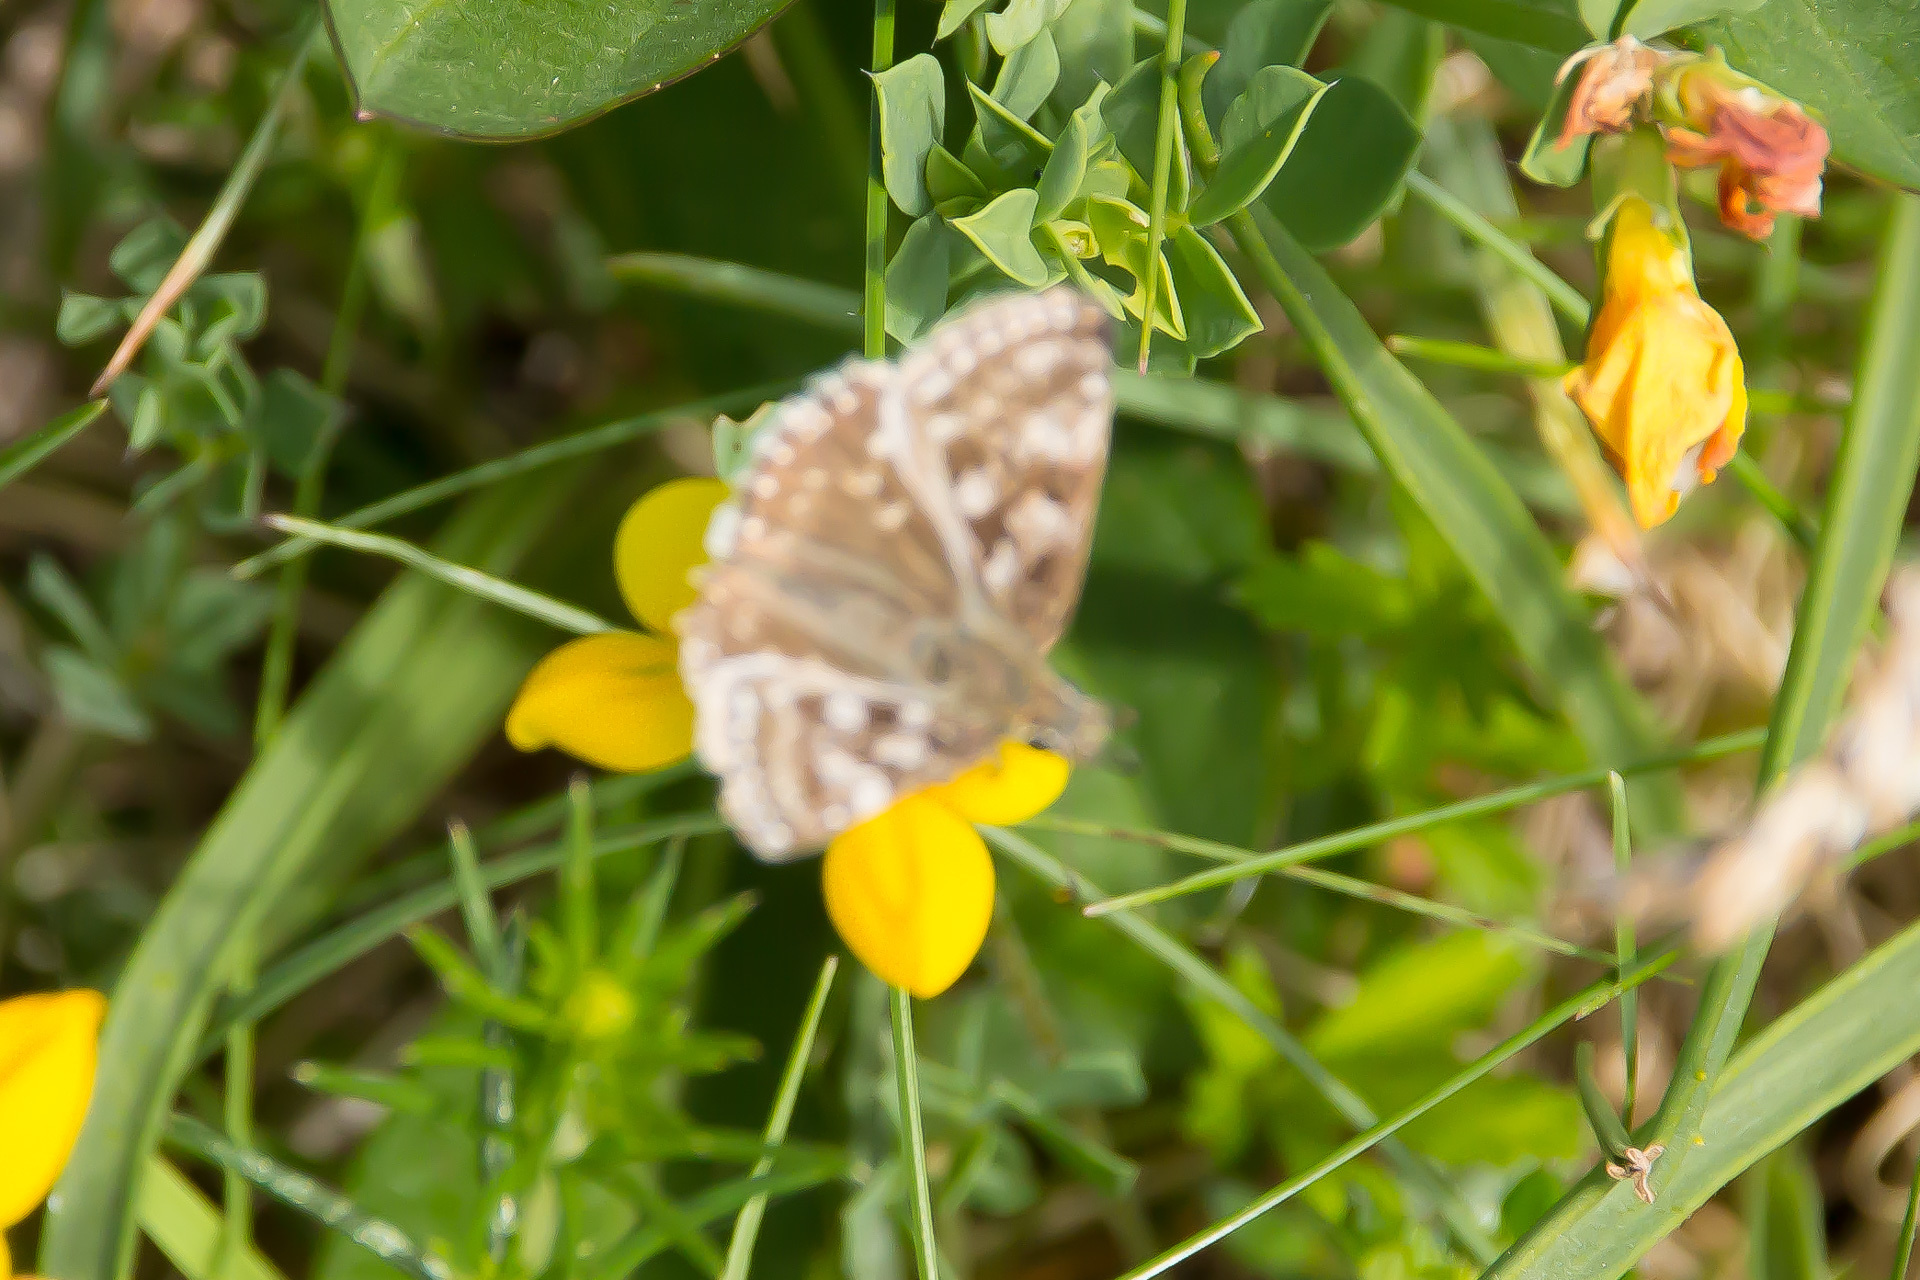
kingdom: Animalia
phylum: Arthropoda
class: Insecta
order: Lepidoptera
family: Hesperiidae
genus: Erynnis
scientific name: Erynnis tages
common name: Dingy skipper
